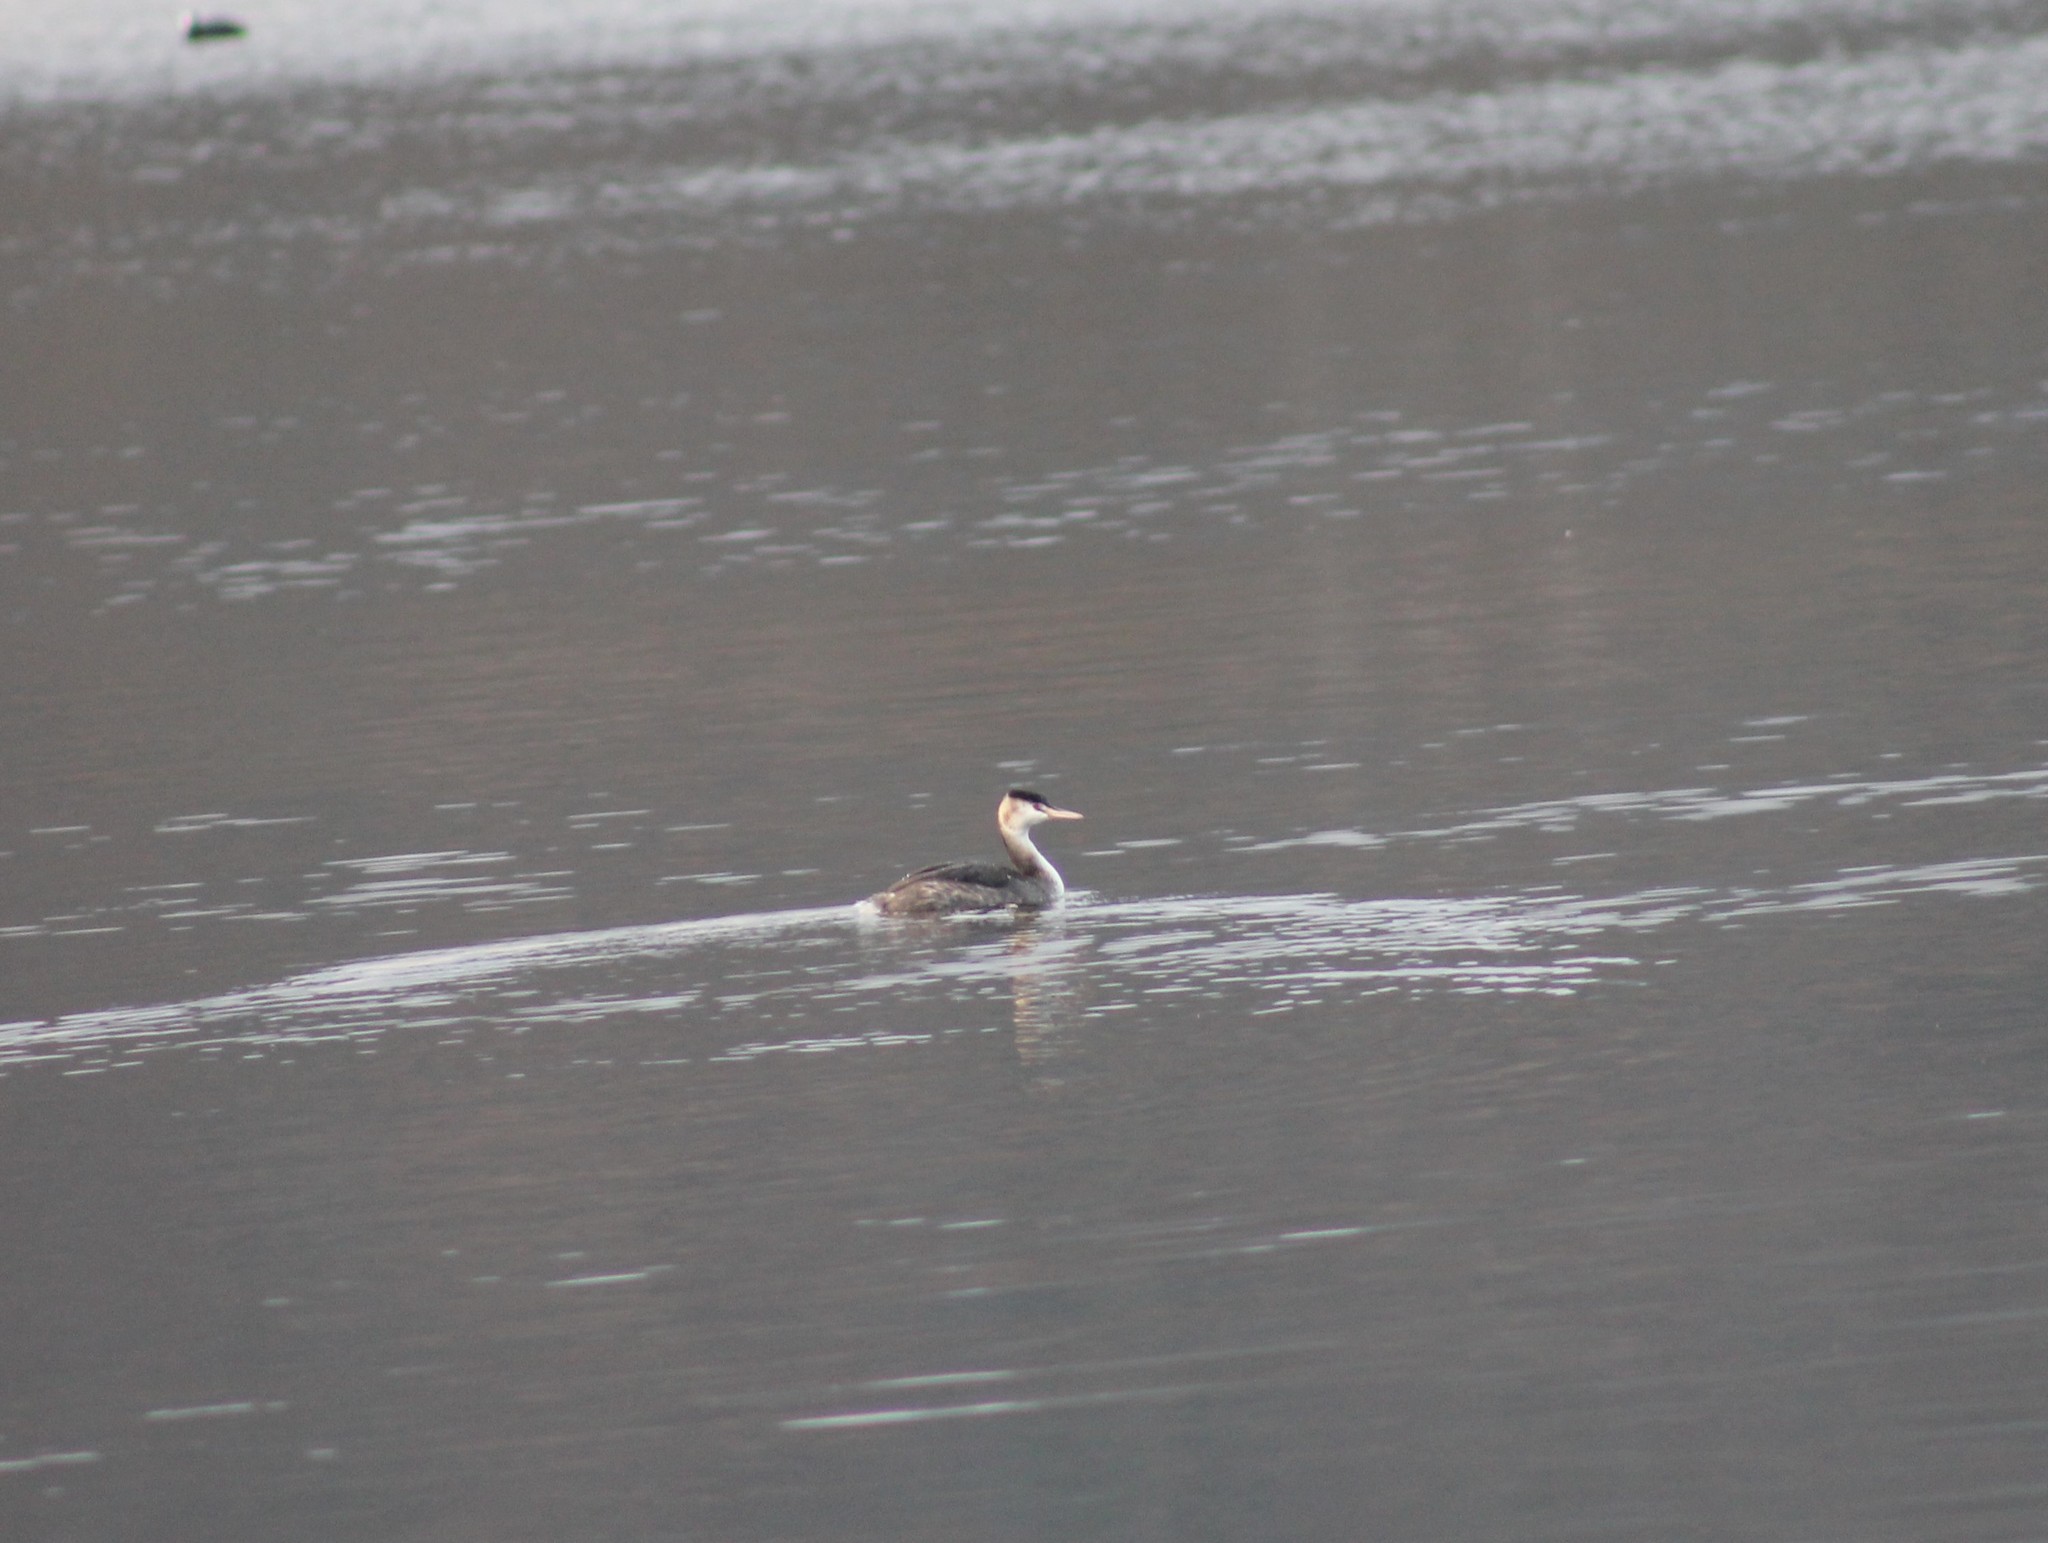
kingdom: Animalia
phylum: Chordata
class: Aves
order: Podicipediformes
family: Podicipedidae
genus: Podiceps
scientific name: Podiceps cristatus
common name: Great crested grebe
